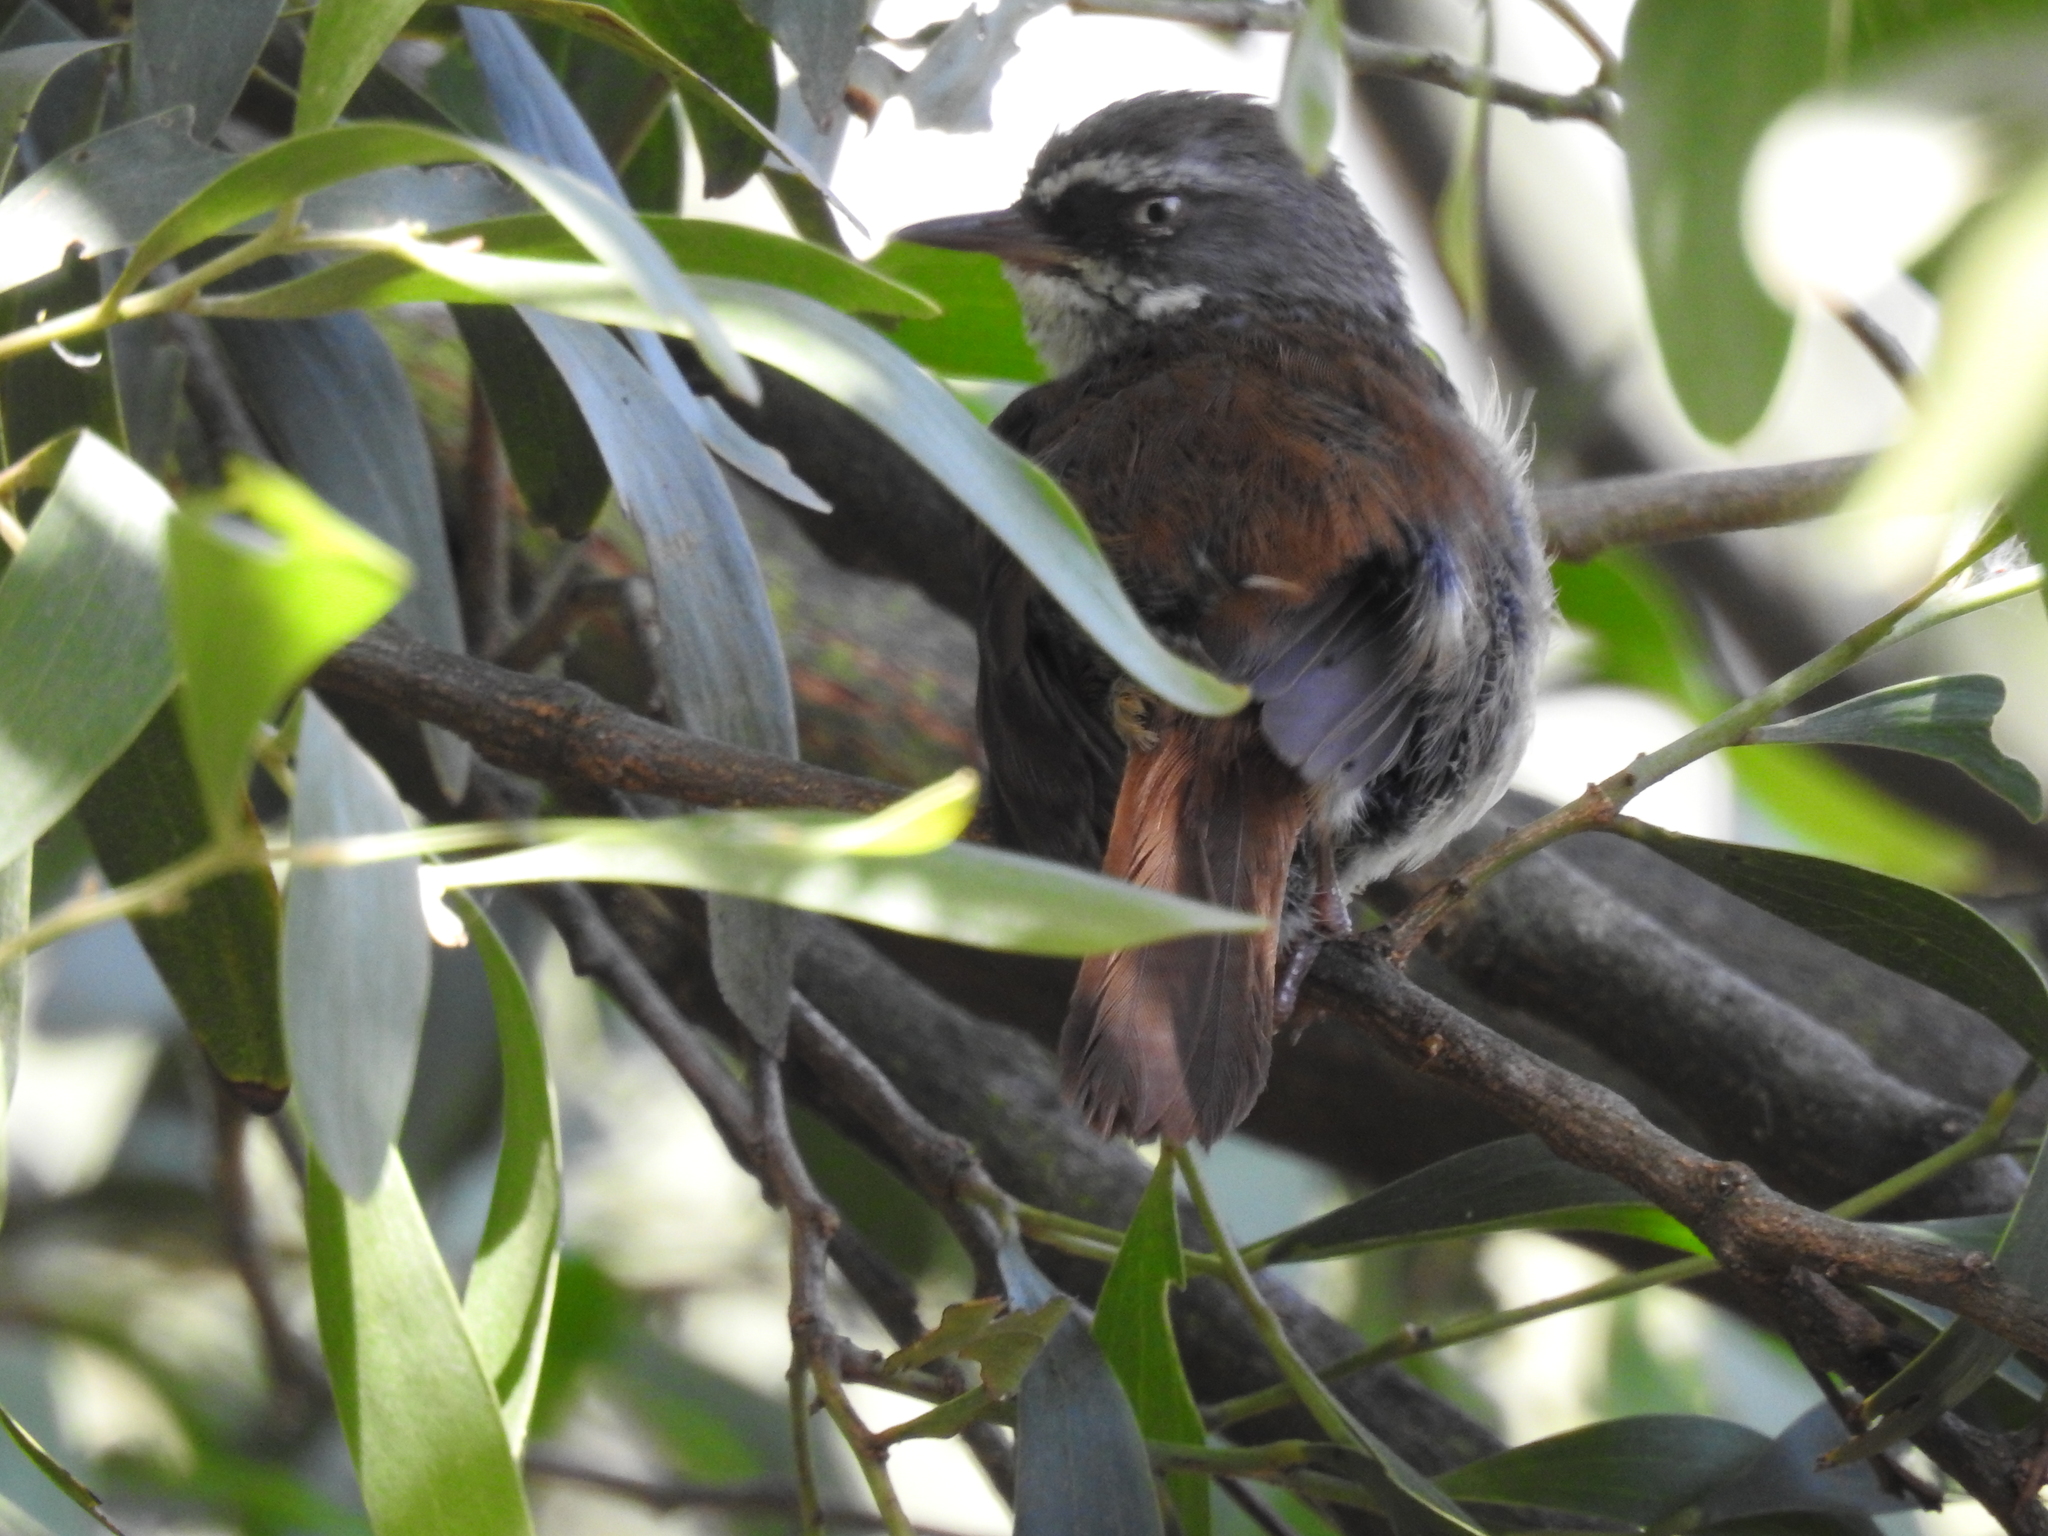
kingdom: Animalia
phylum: Chordata
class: Aves
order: Passeriformes
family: Acanthizidae
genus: Sericornis
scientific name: Sericornis frontalis
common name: White-browed scrubwren
